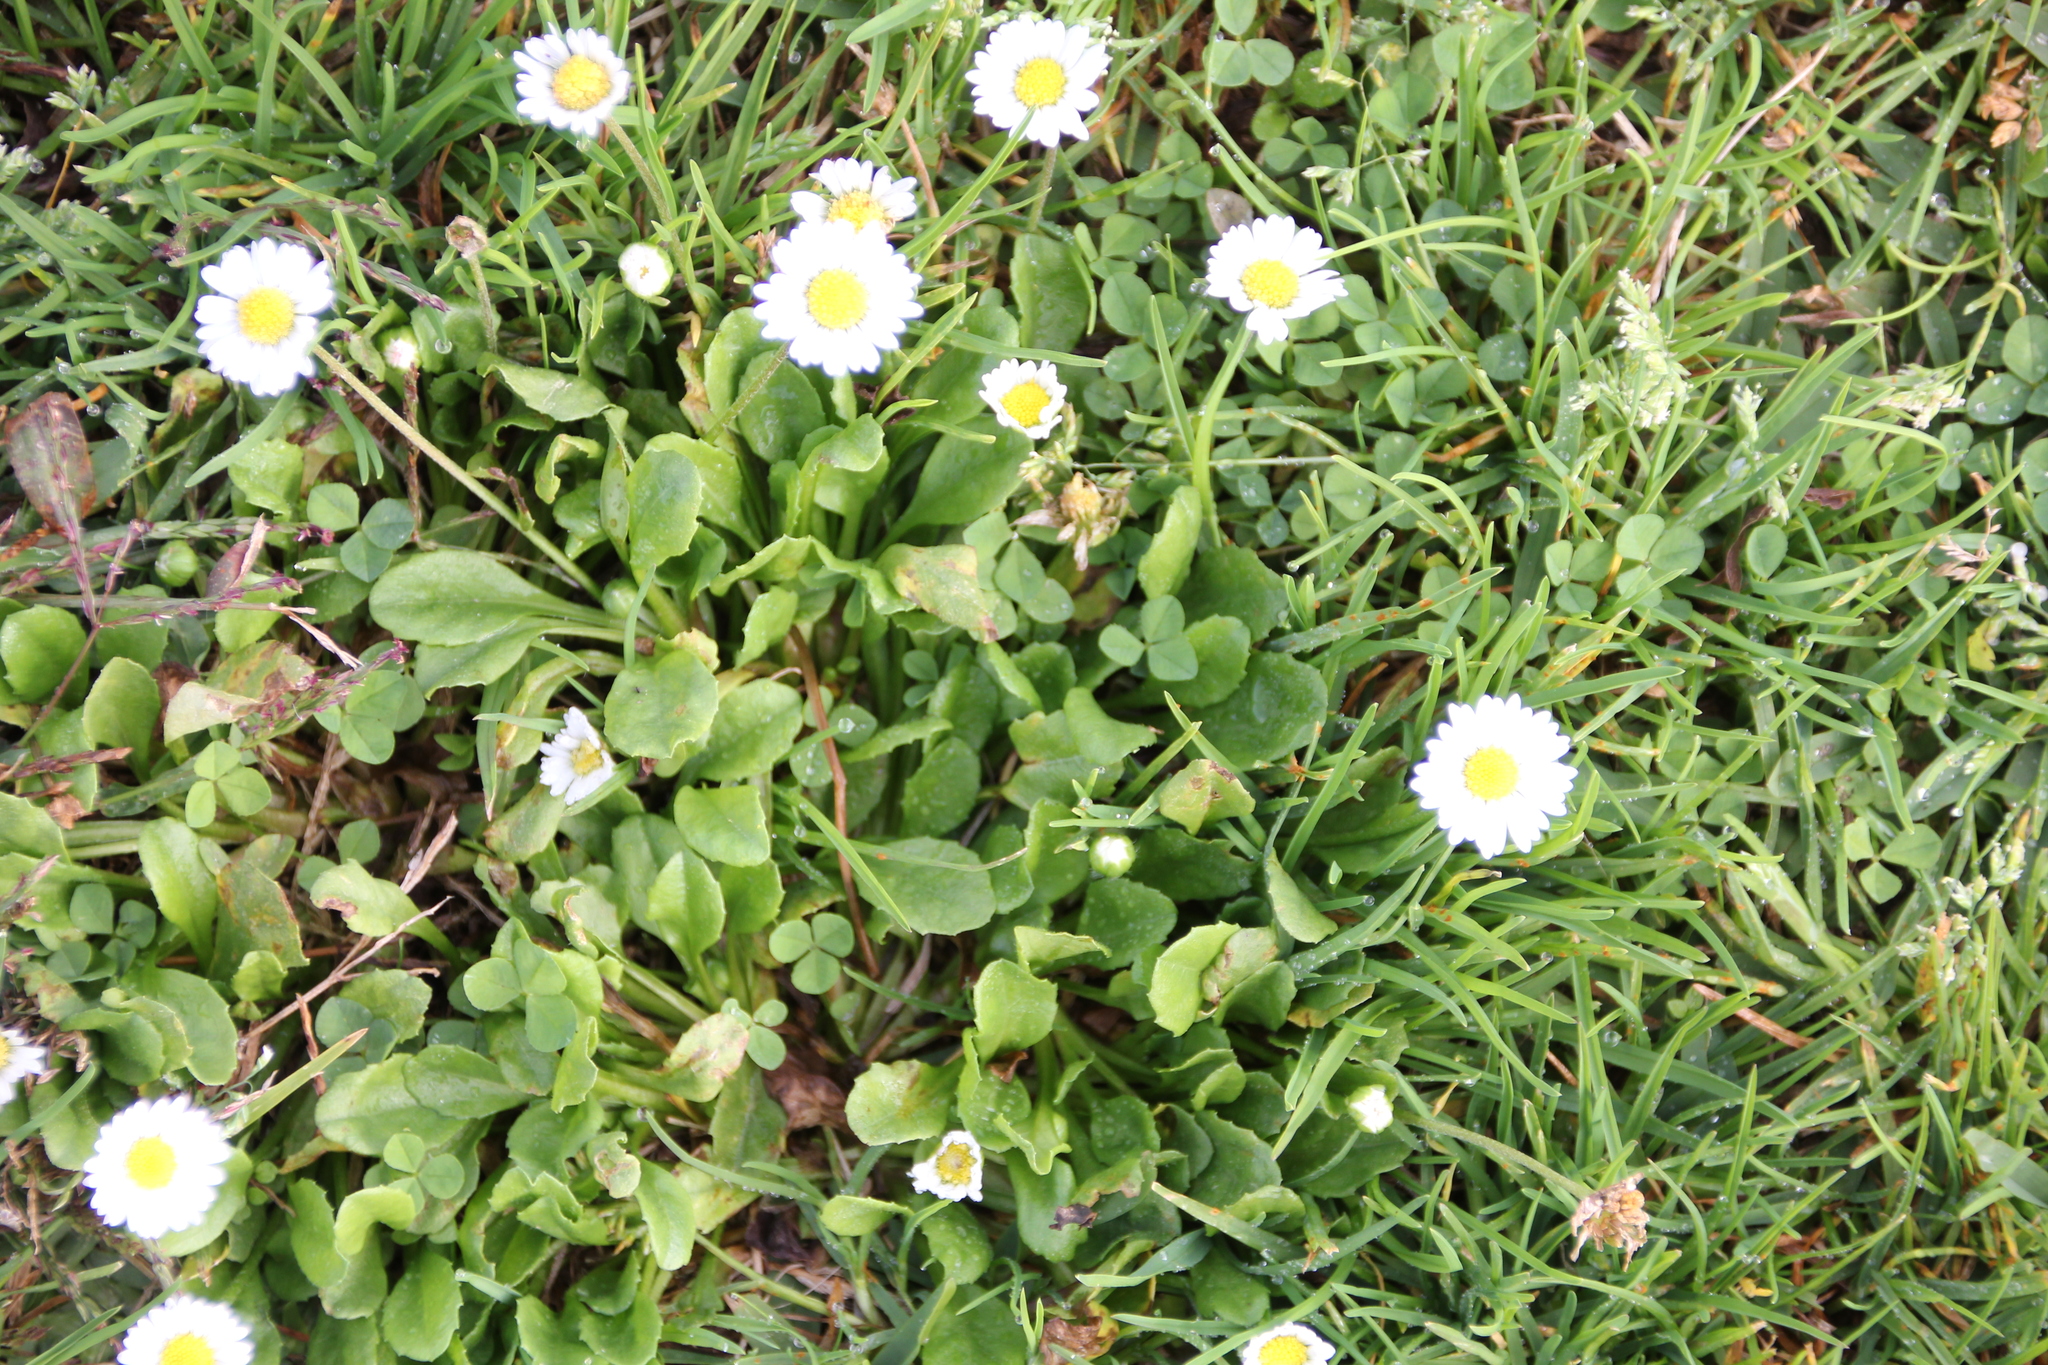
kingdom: Plantae
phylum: Tracheophyta
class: Magnoliopsida
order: Asterales
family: Asteraceae
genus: Bellis
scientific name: Bellis perennis
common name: Lawndaisy
